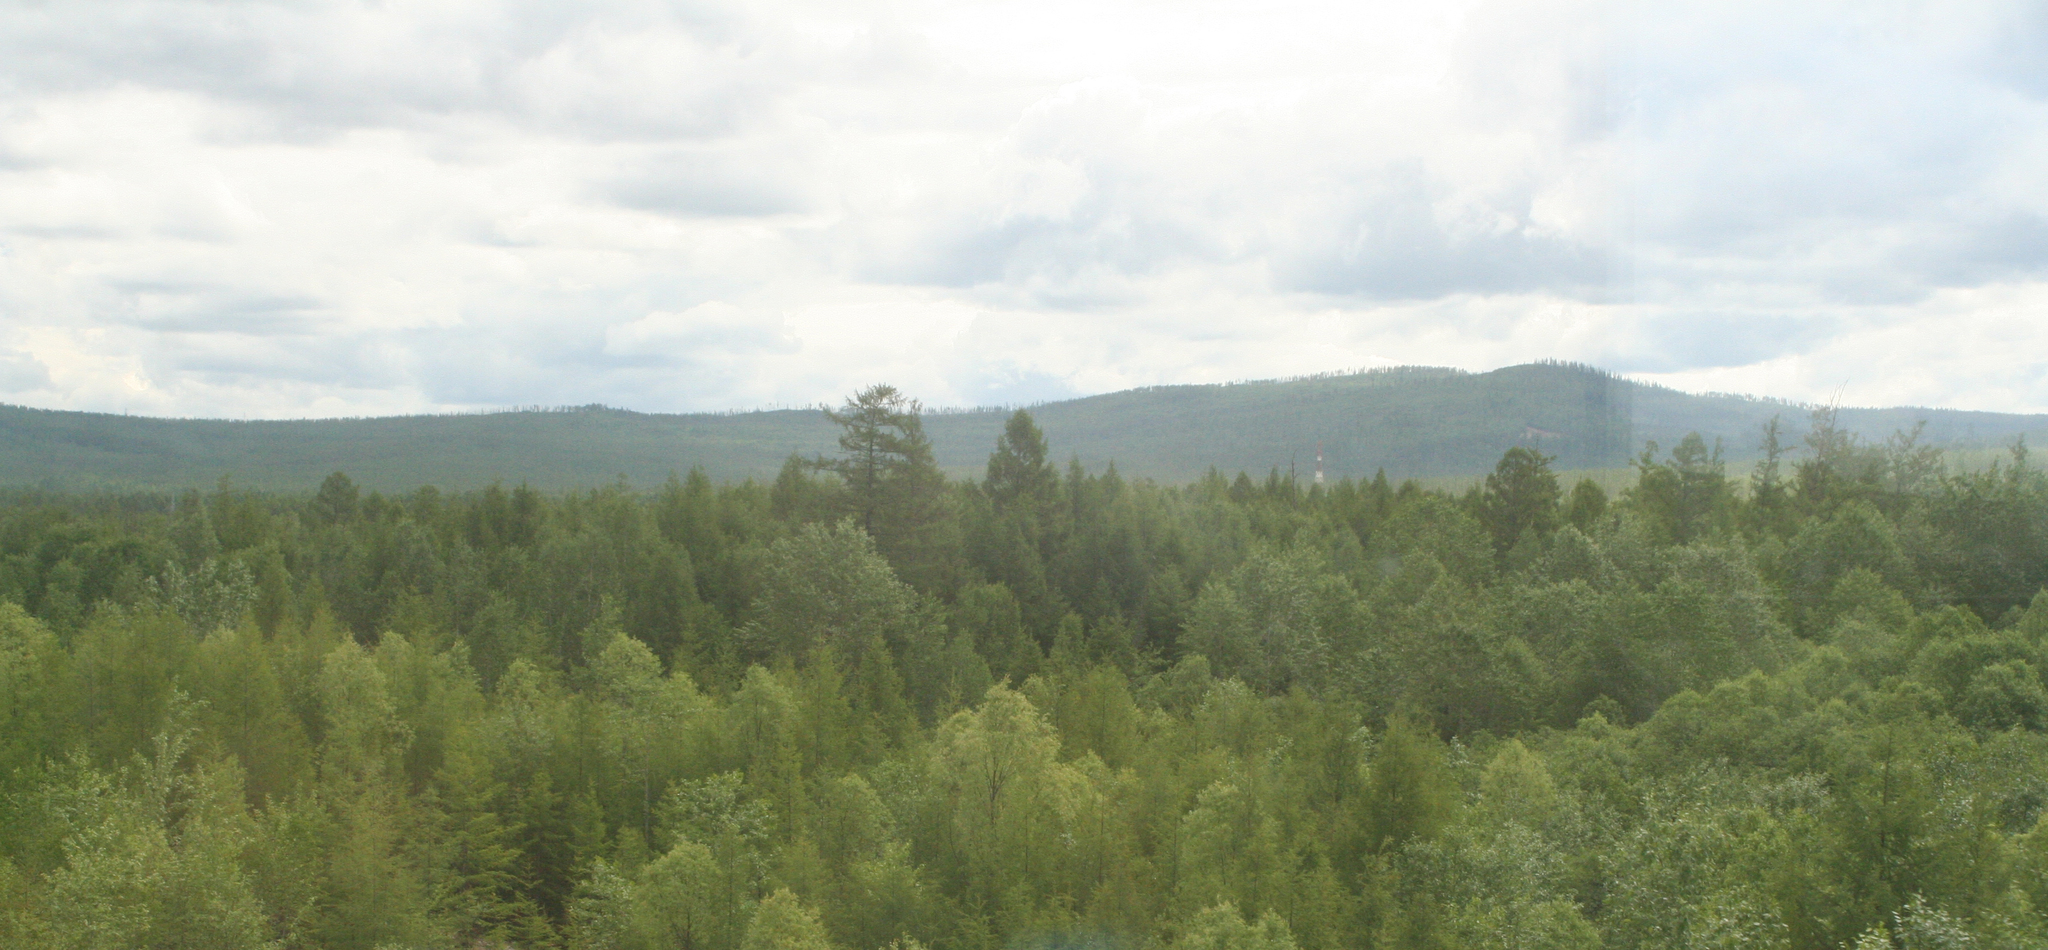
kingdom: Plantae
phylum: Tracheophyta
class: Pinopsida
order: Pinales
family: Pinaceae
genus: Larix
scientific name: Larix gmelinii
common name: Dahurian larch
